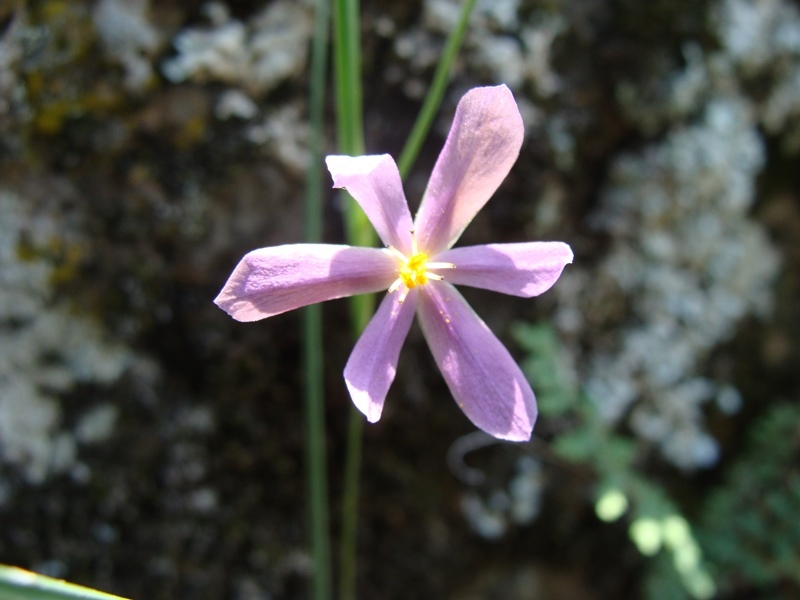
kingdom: Plantae
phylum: Tracheophyta
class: Liliopsida
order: Asparagales
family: Iridaceae
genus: Nemastylis
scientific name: Nemastylis tenuis
